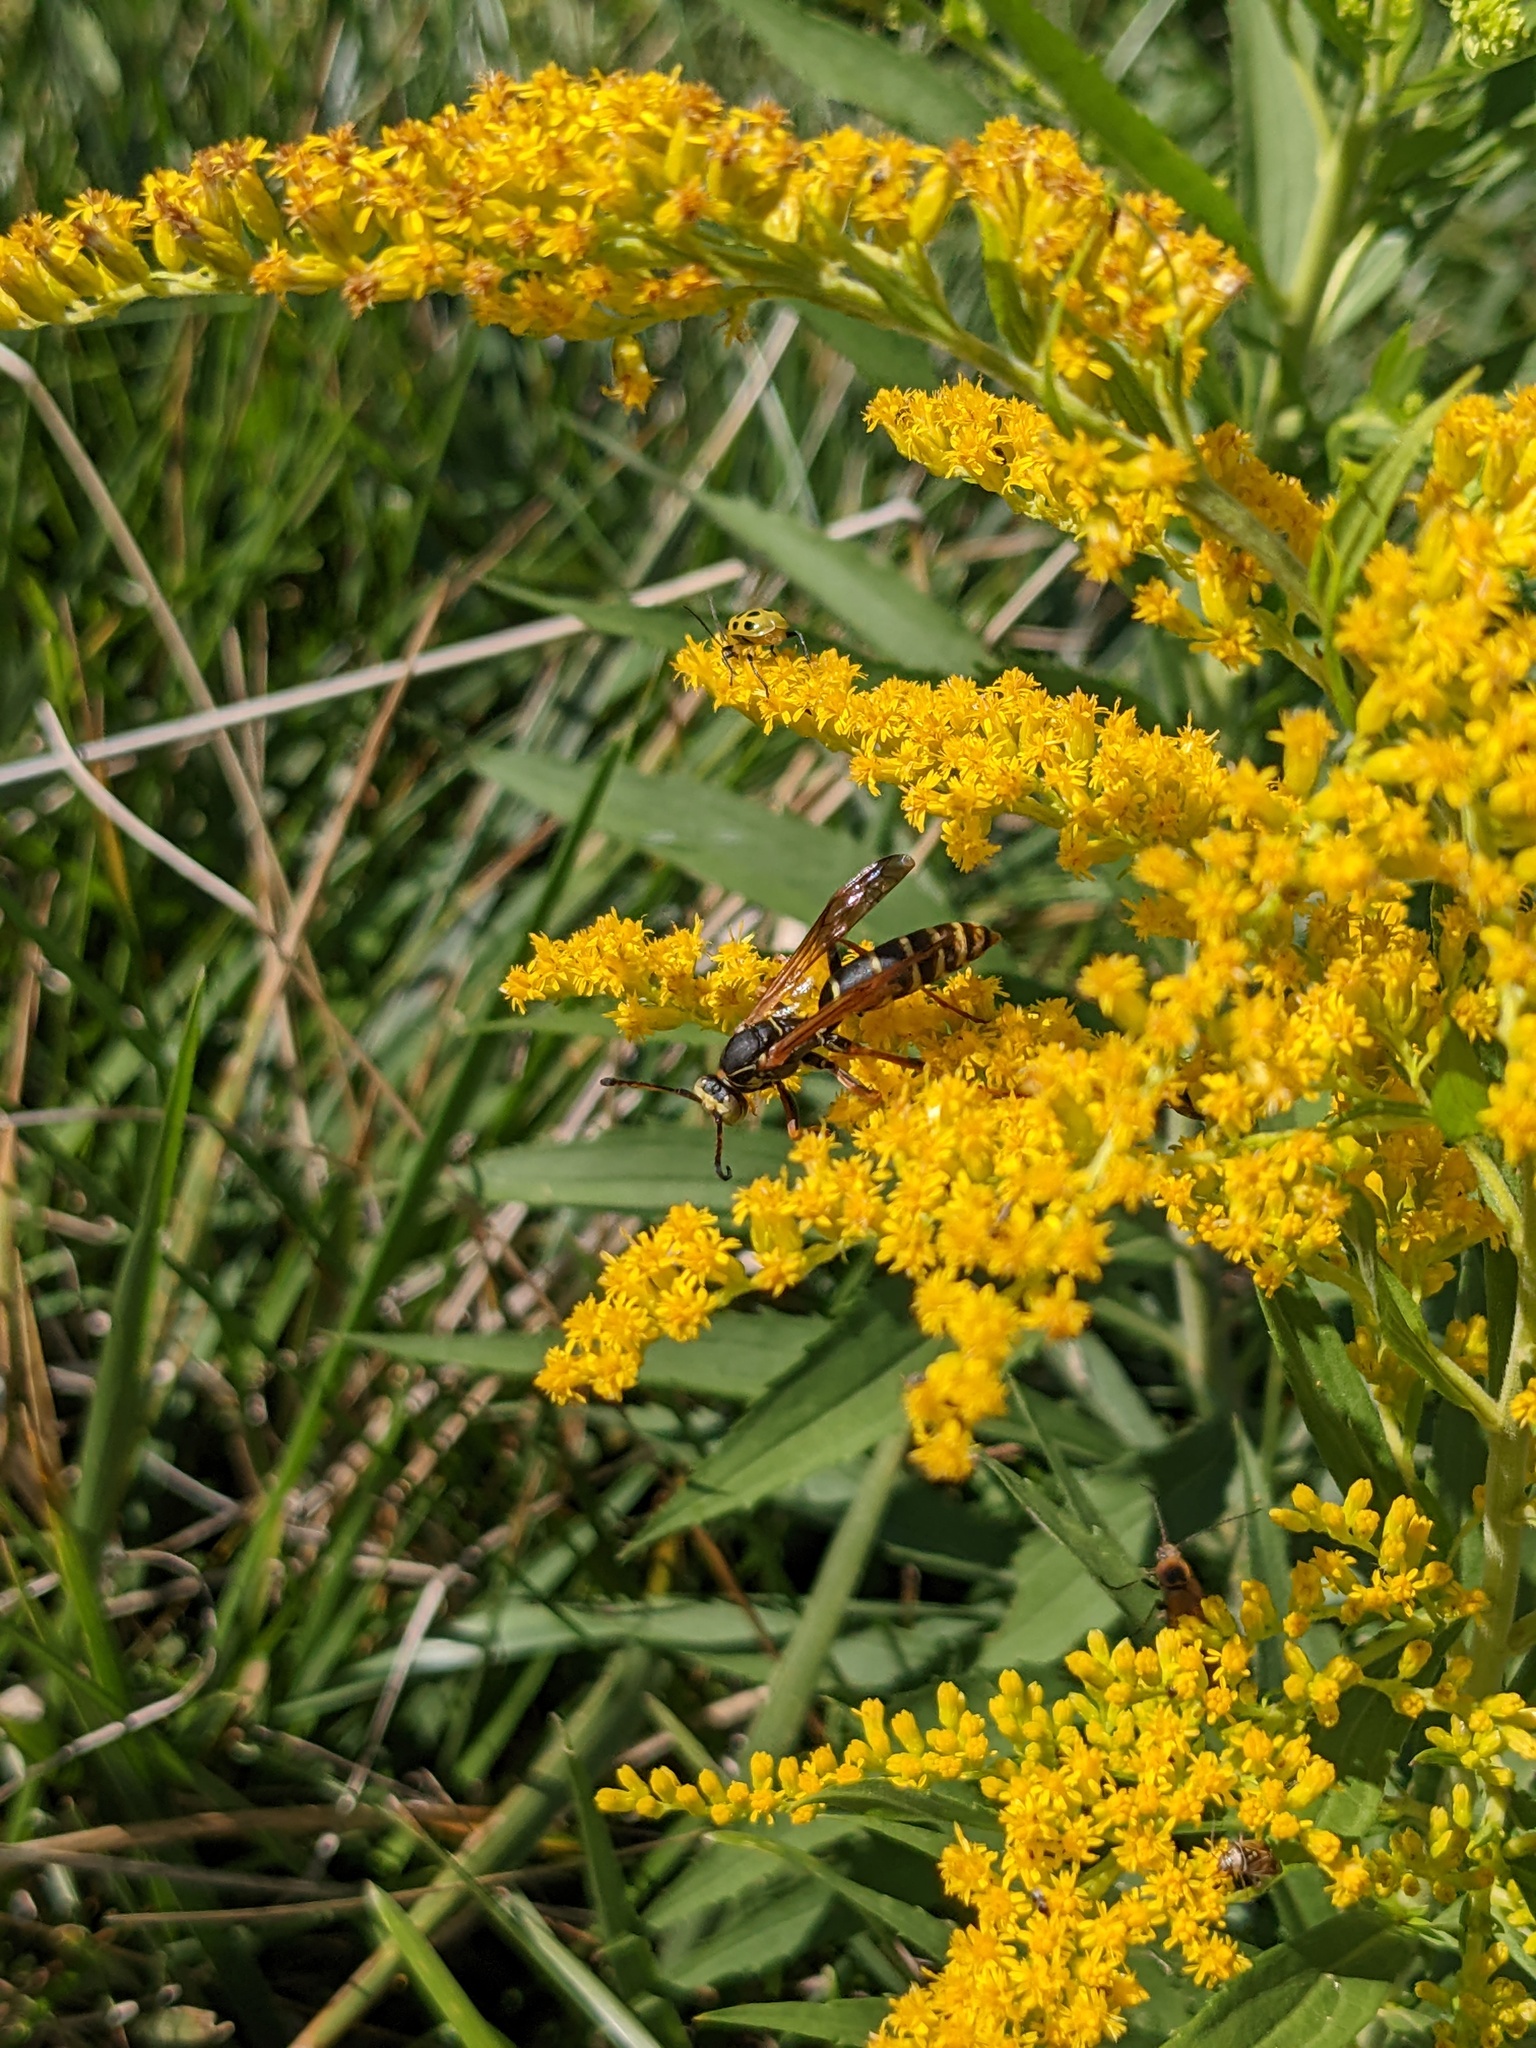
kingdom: Animalia
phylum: Arthropoda
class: Insecta
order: Hymenoptera
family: Eumenidae
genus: Polistes
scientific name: Polistes fuscatus
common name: Dark paper wasp
